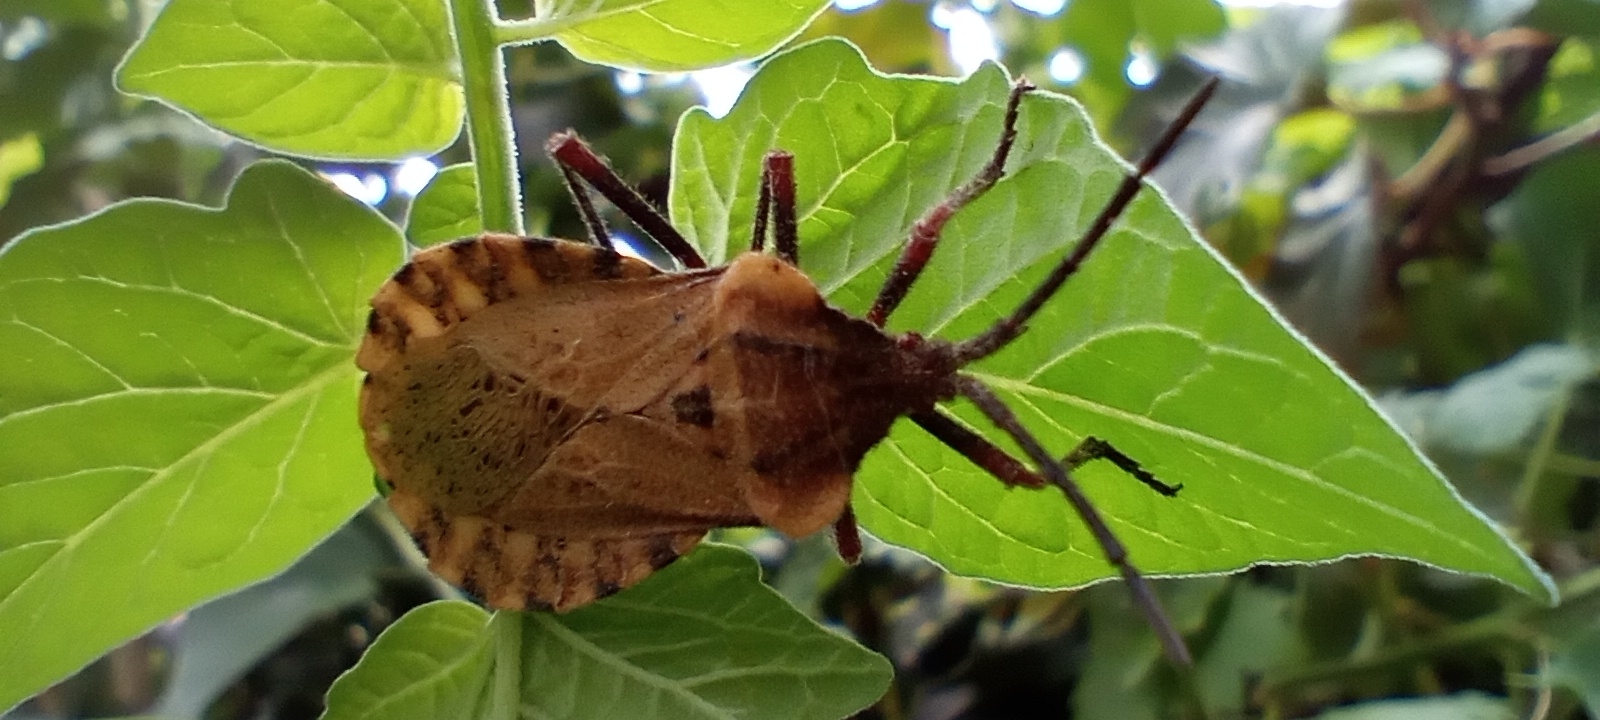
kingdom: Animalia
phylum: Arthropoda
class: Insecta
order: Hemiptera
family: Coreidae
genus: Spartocera
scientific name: Spartocera fusca
